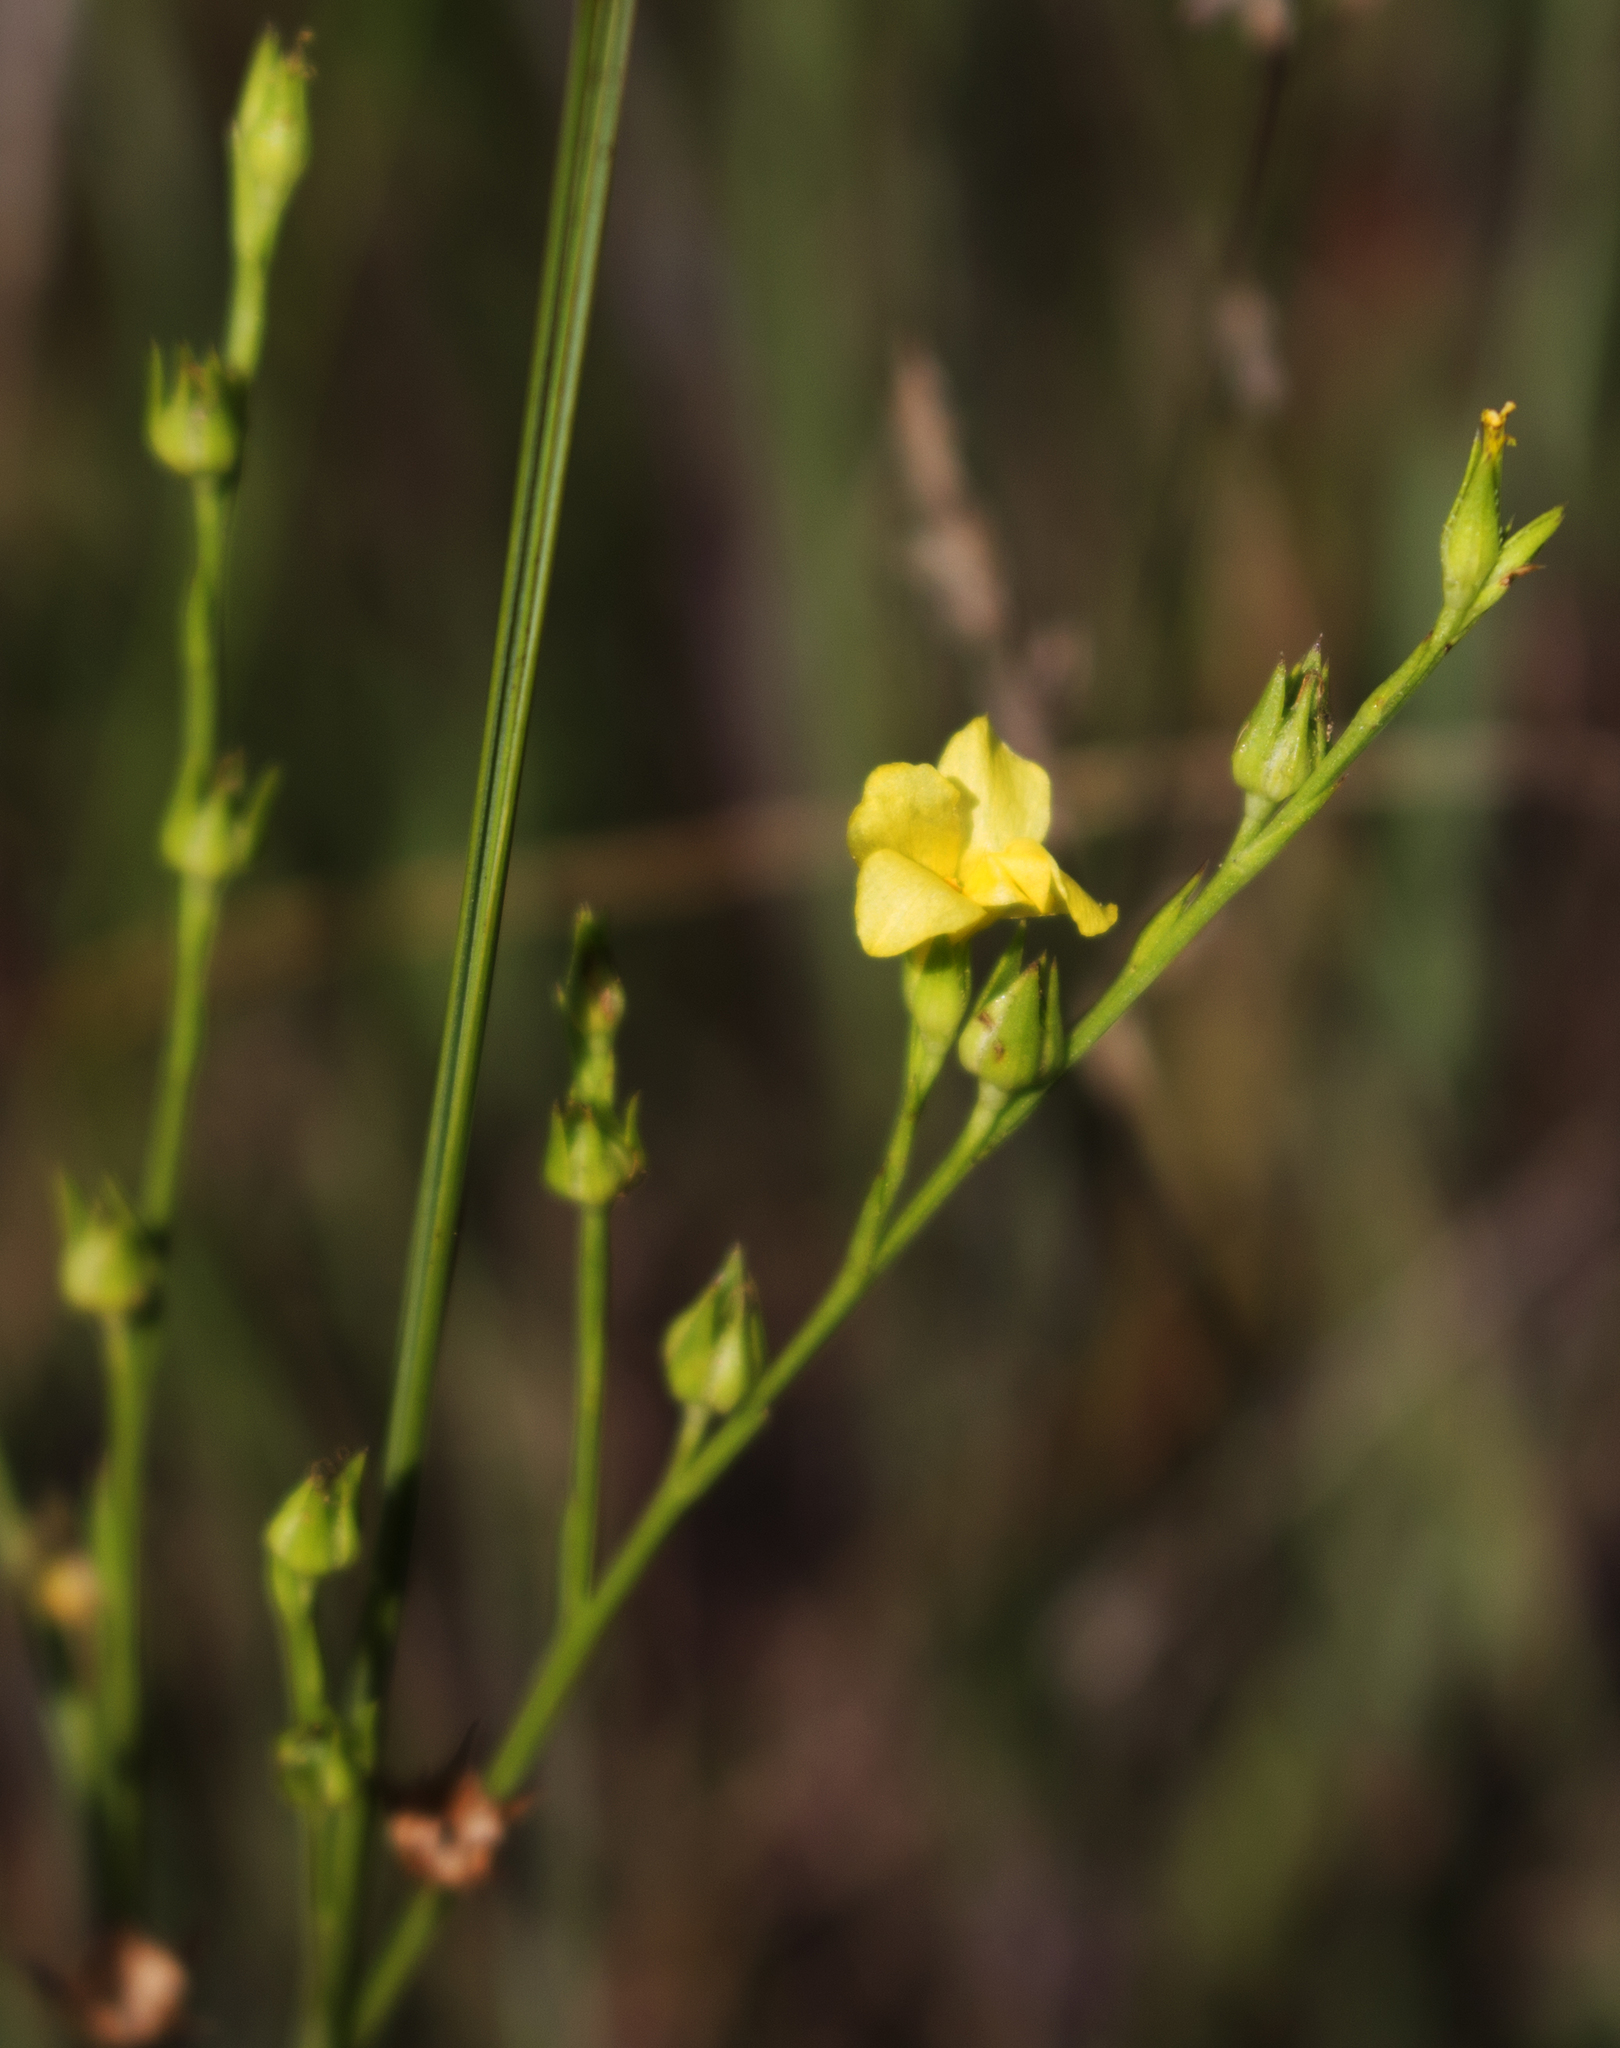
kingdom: Plantae
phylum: Tracheophyta
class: Magnoliopsida
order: Malpighiales
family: Linaceae
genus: Linum
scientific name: Linum sulcatum
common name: Grooved flax
